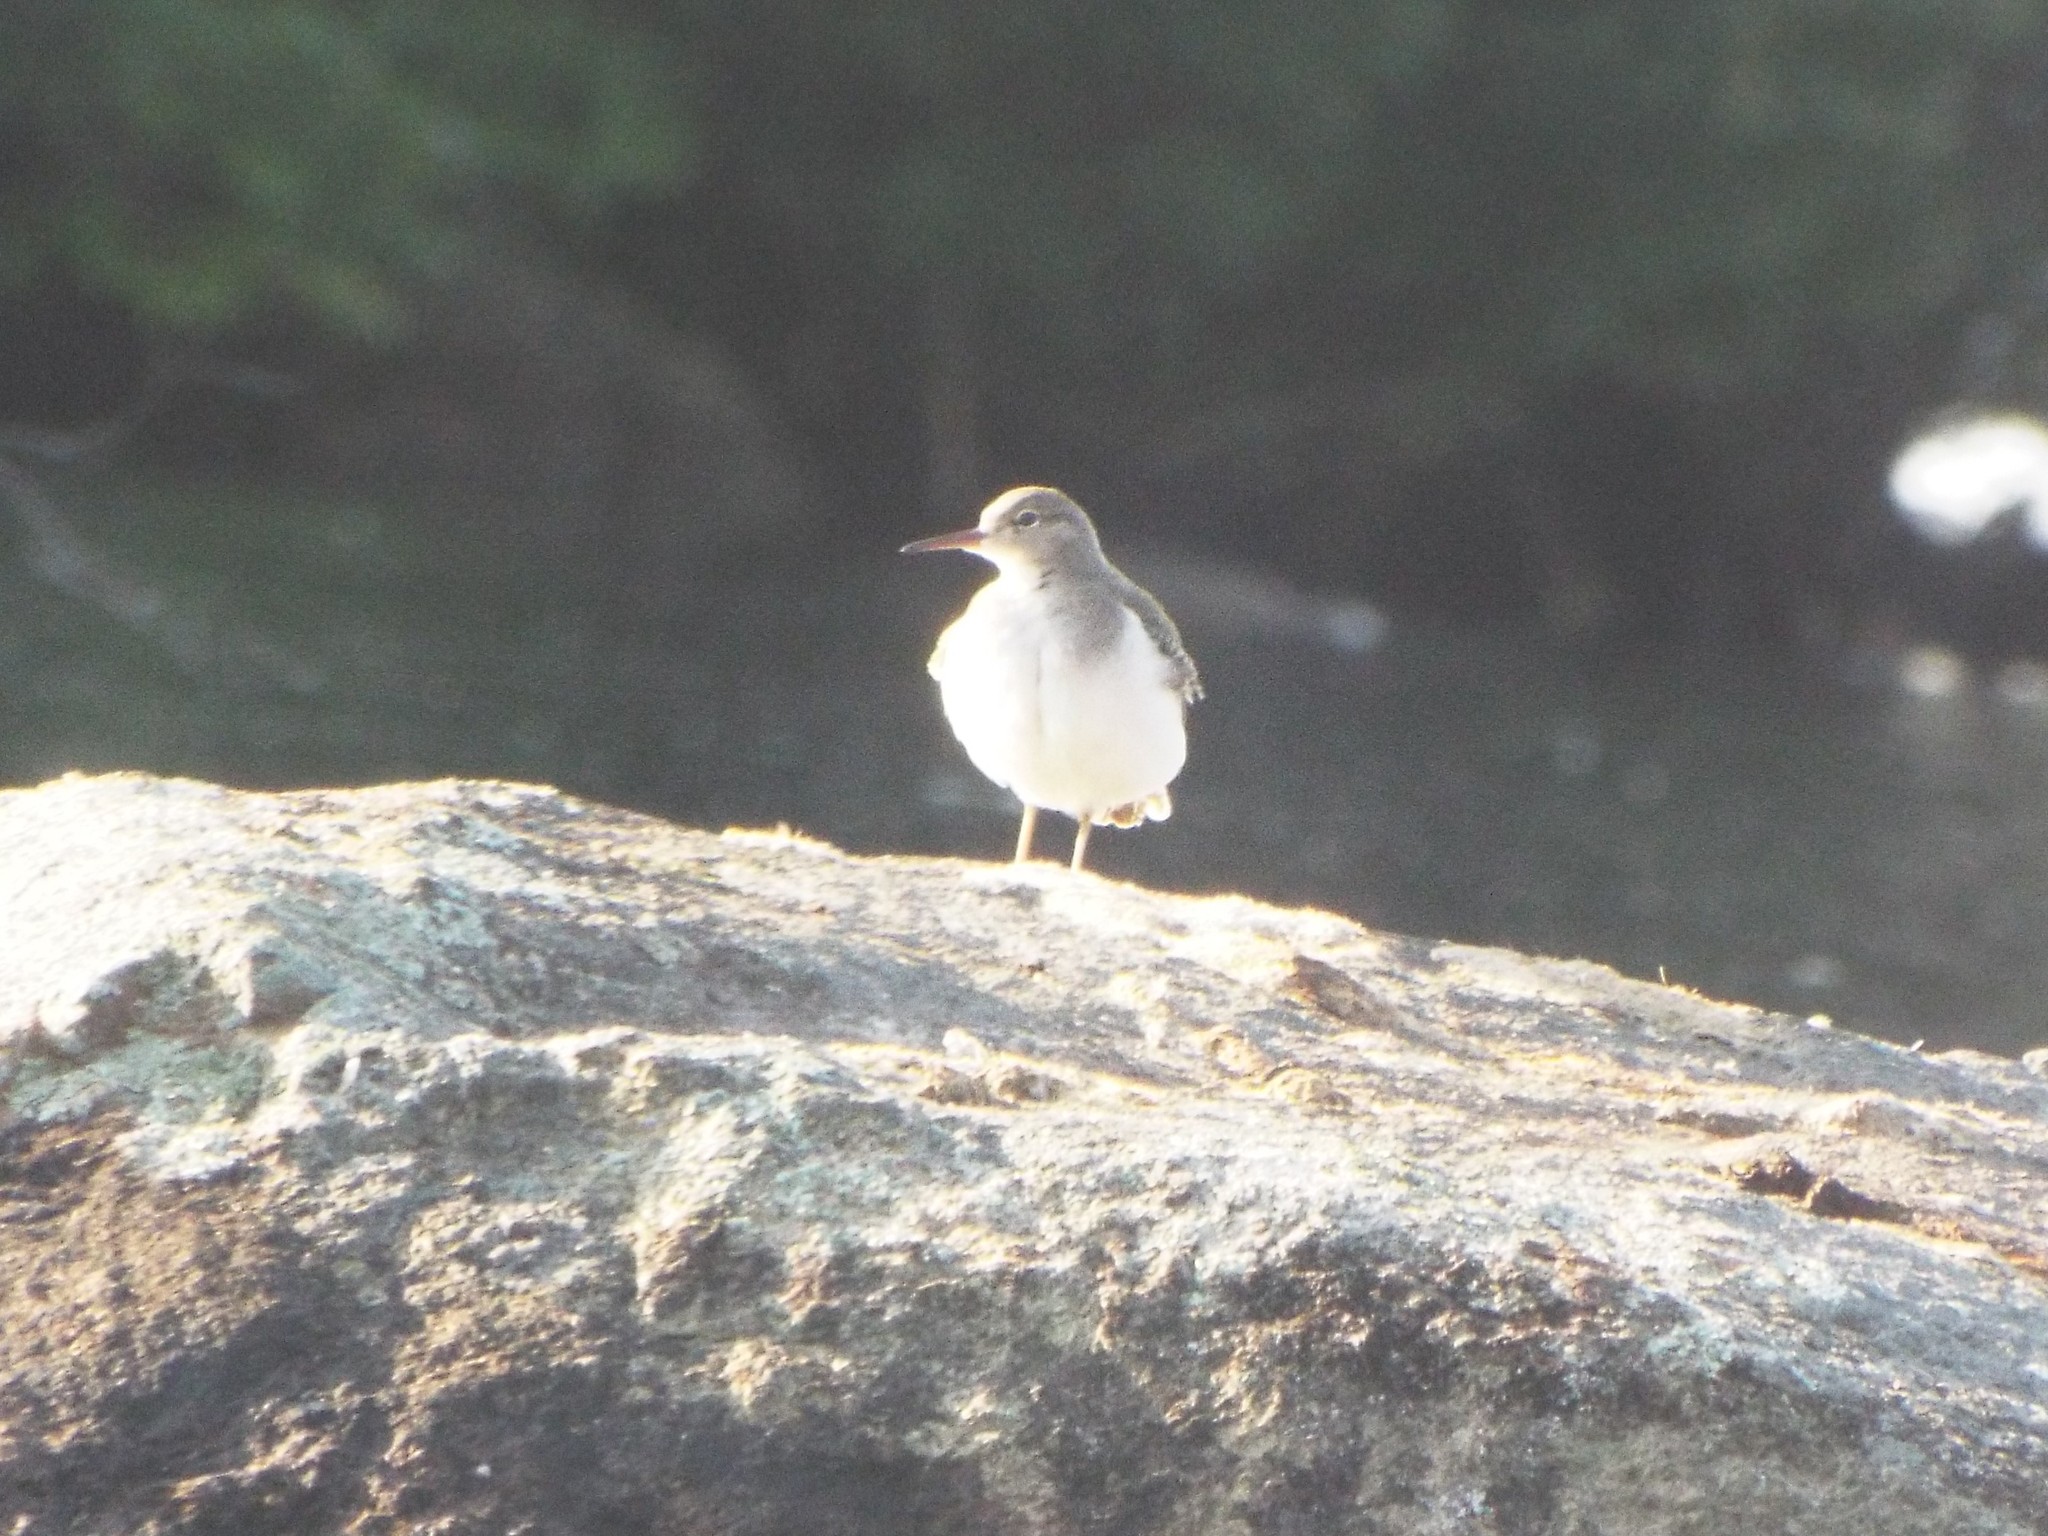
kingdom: Animalia
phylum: Chordata
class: Aves
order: Charadriiformes
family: Scolopacidae
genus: Actitis
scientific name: Actitis macularius
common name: Spotted sandpiper
